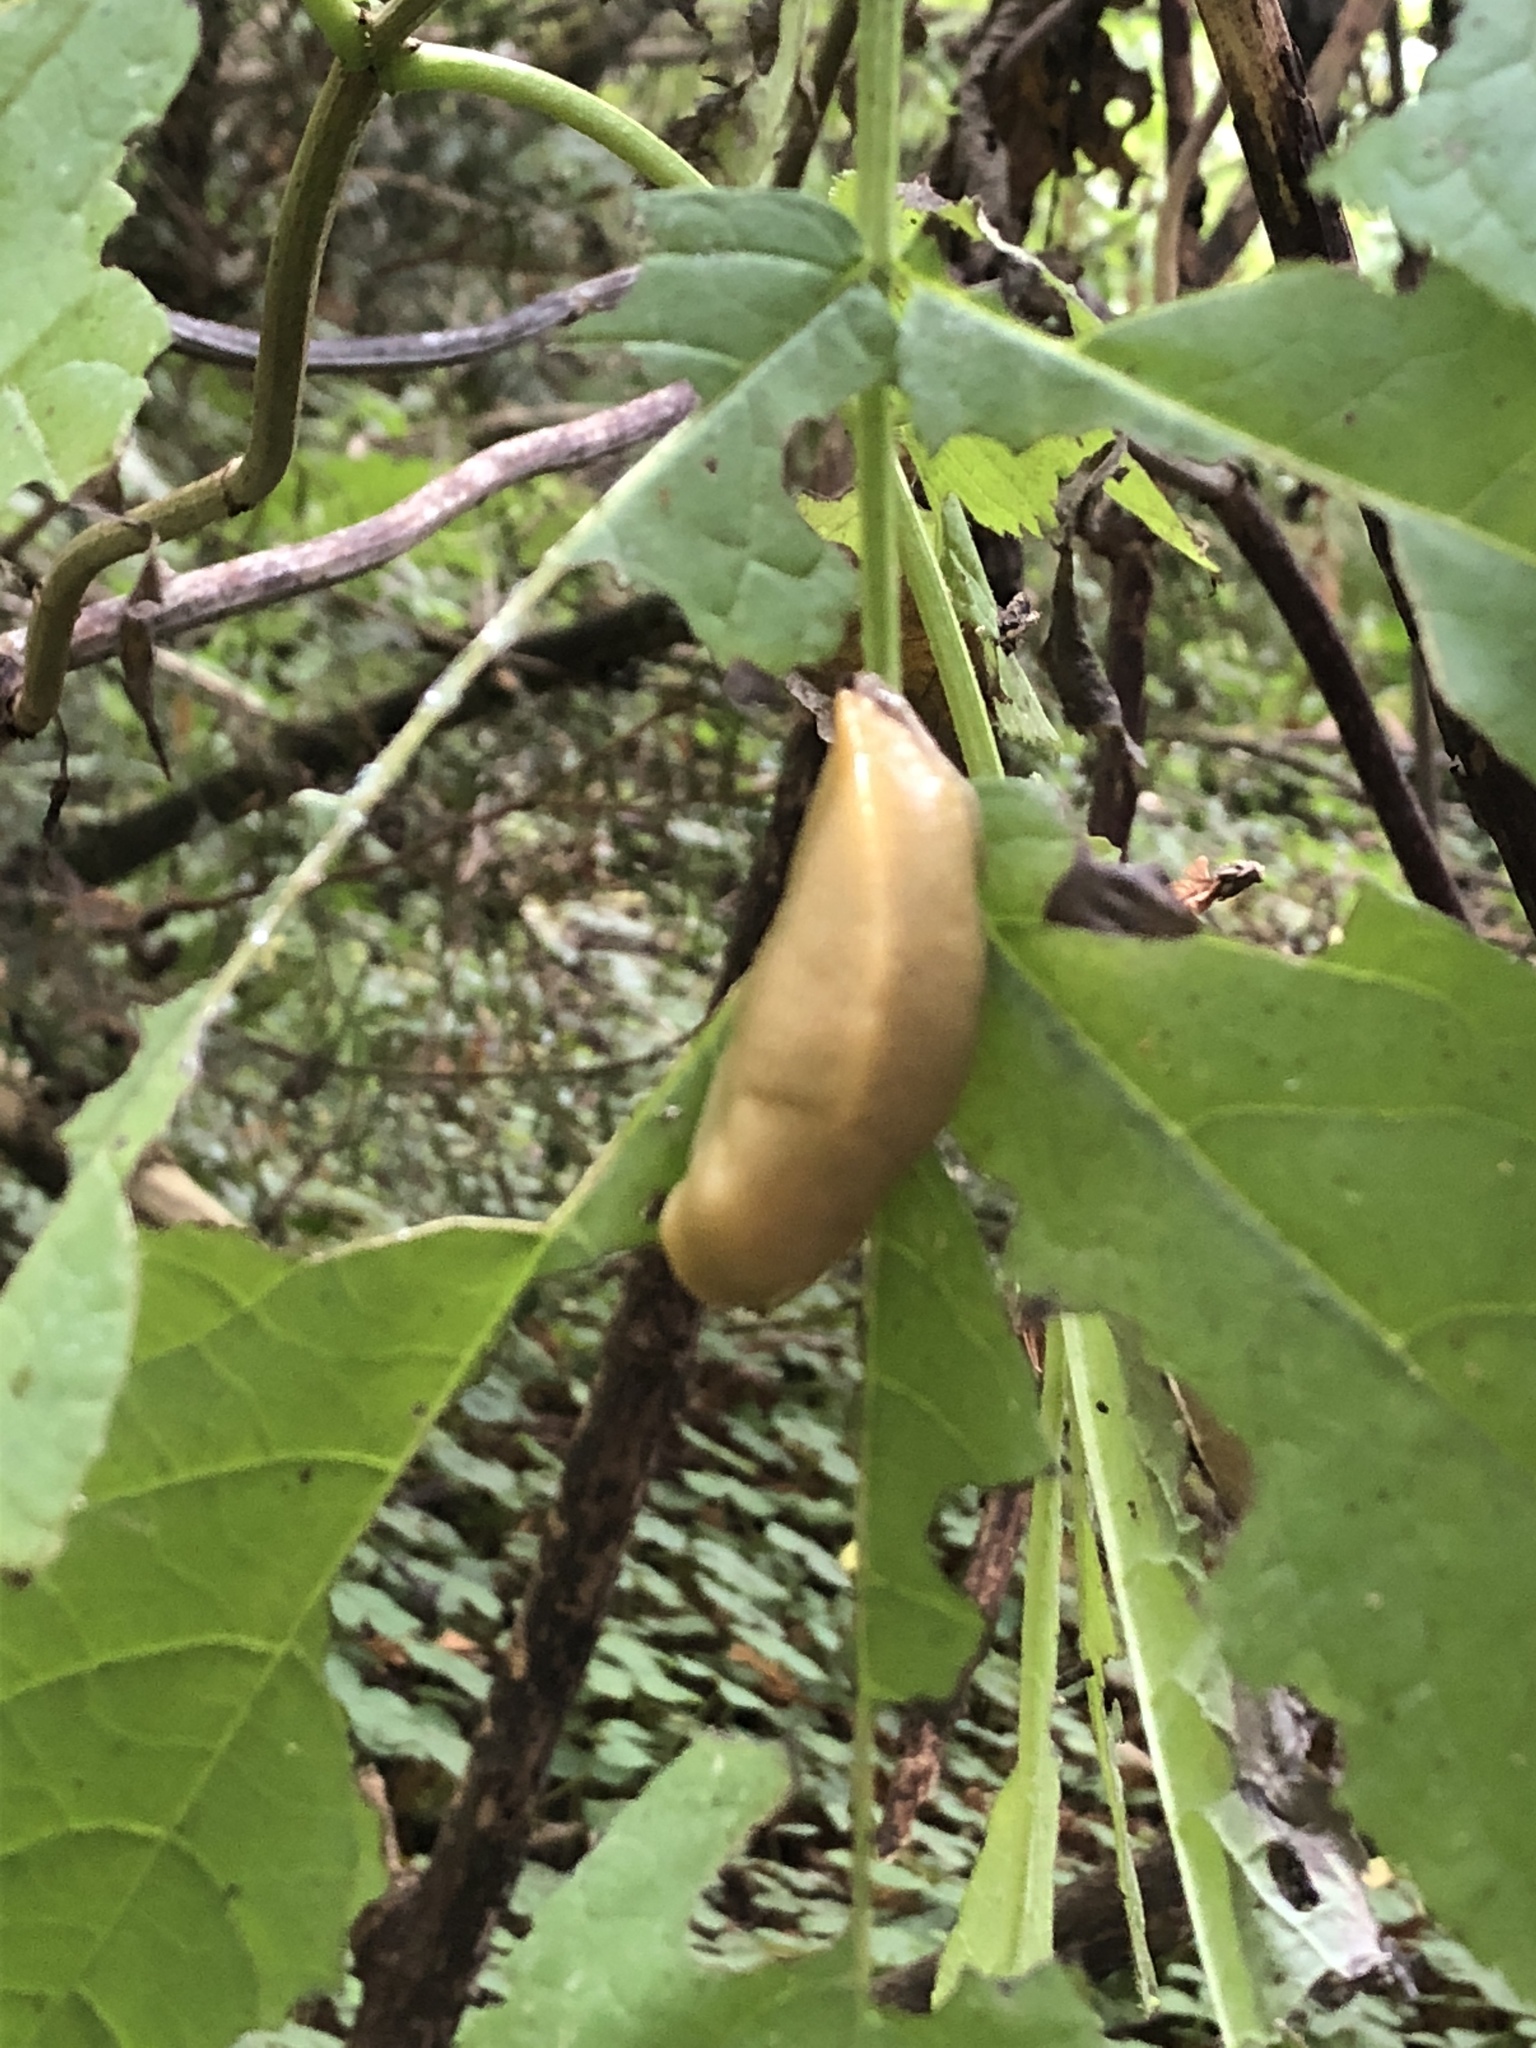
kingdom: Animalia
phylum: Mollusca
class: Gastropoda
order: Stylommatophora
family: Ariolimacidae
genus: Ariolimax
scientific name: Ariolimax columbianus
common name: Pacific banana slug
